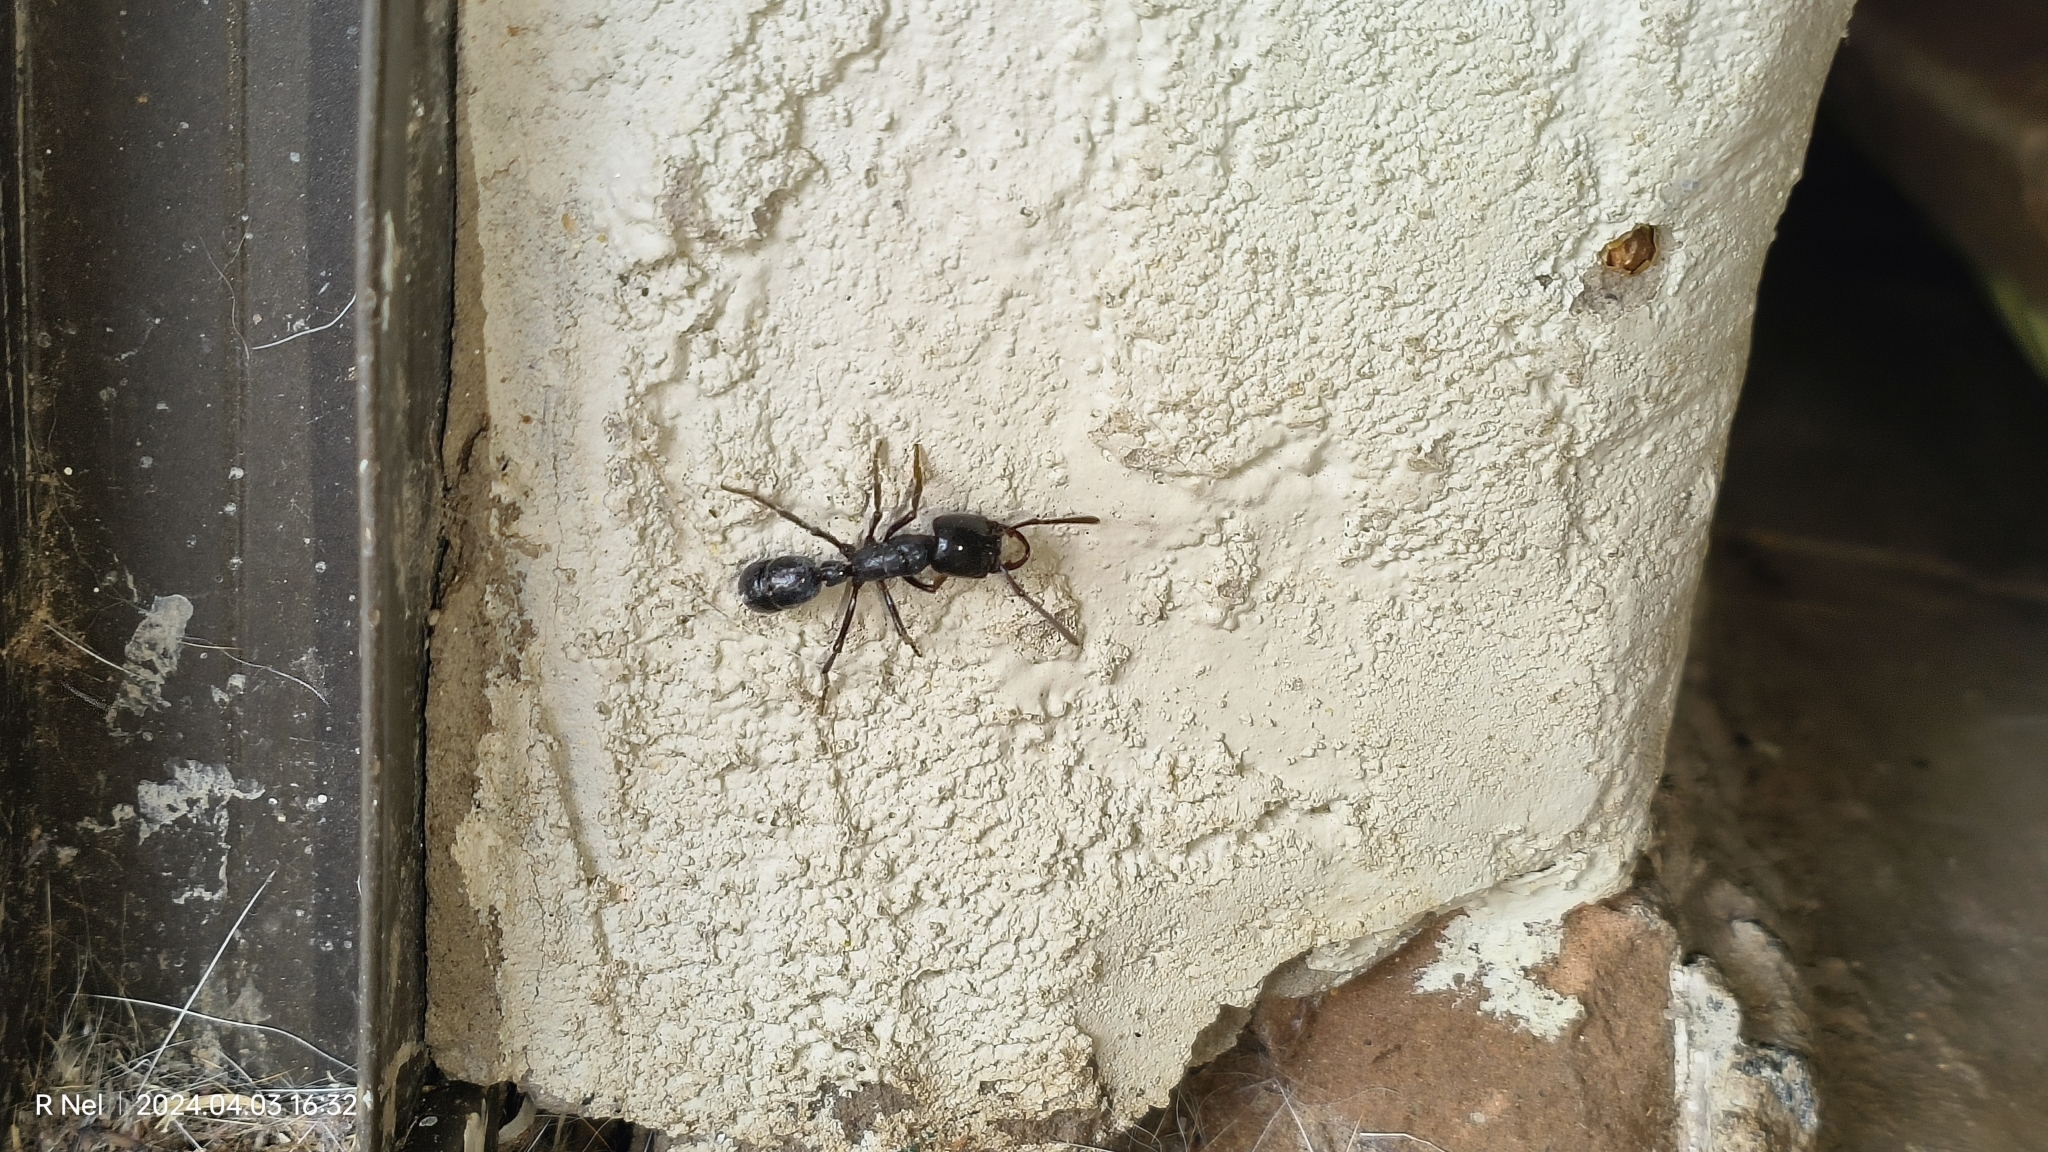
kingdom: Animalia
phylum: Arthropoda
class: Insecta
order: Hymenoptera
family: Formicidae
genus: Plectroctena
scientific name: Plectroctena mandibularis
